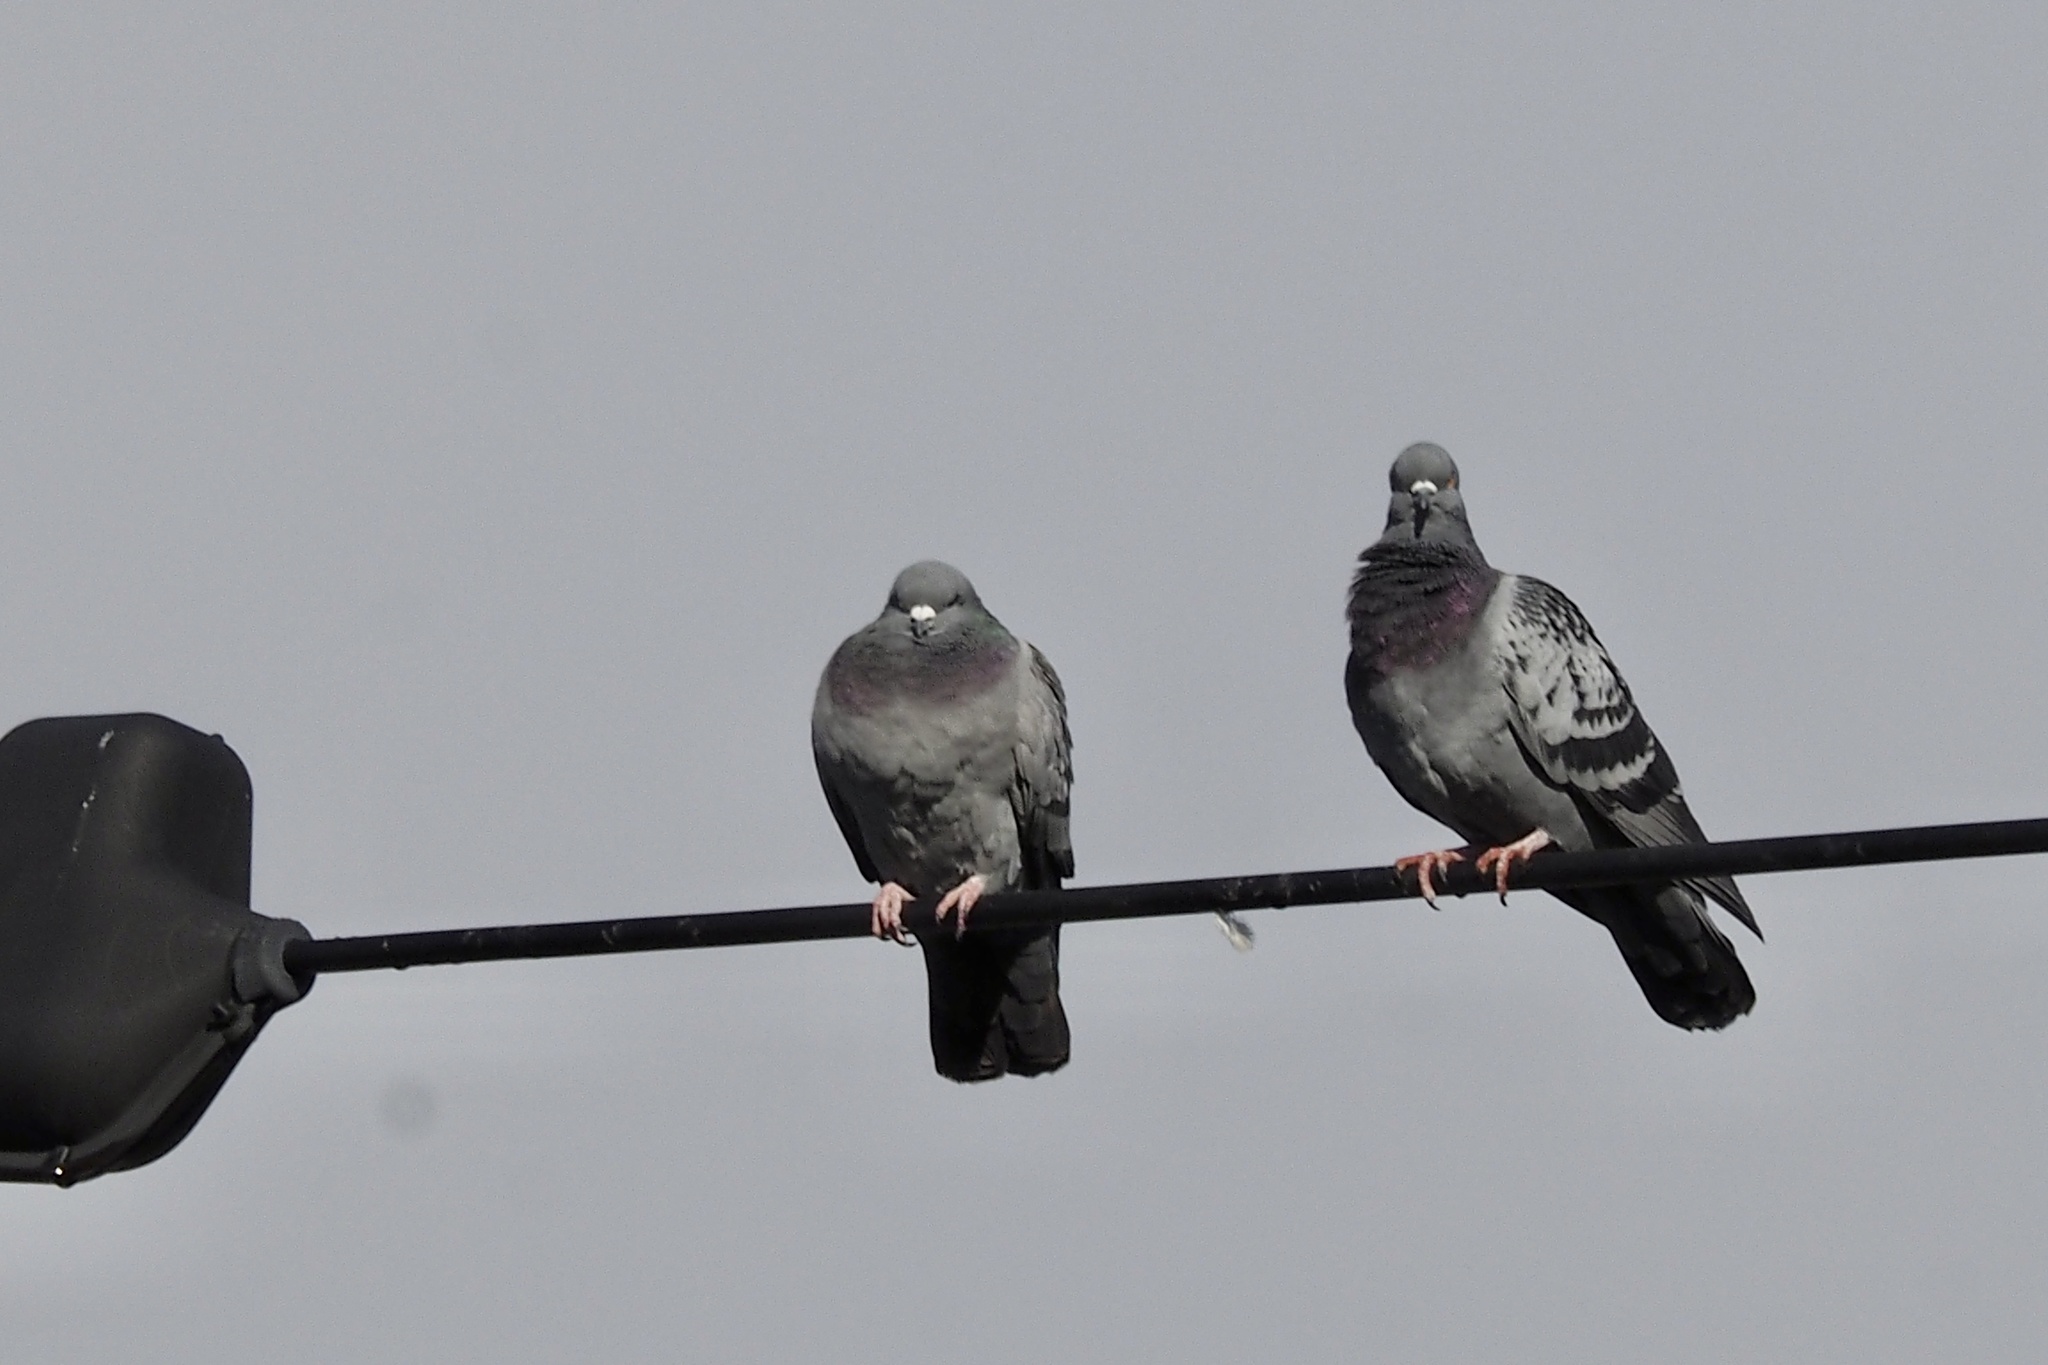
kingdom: Animalia
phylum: Chordata
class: Aves
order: Columbiformes
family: Columbidae
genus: Columba
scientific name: Columba livia
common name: Rock pigeon
